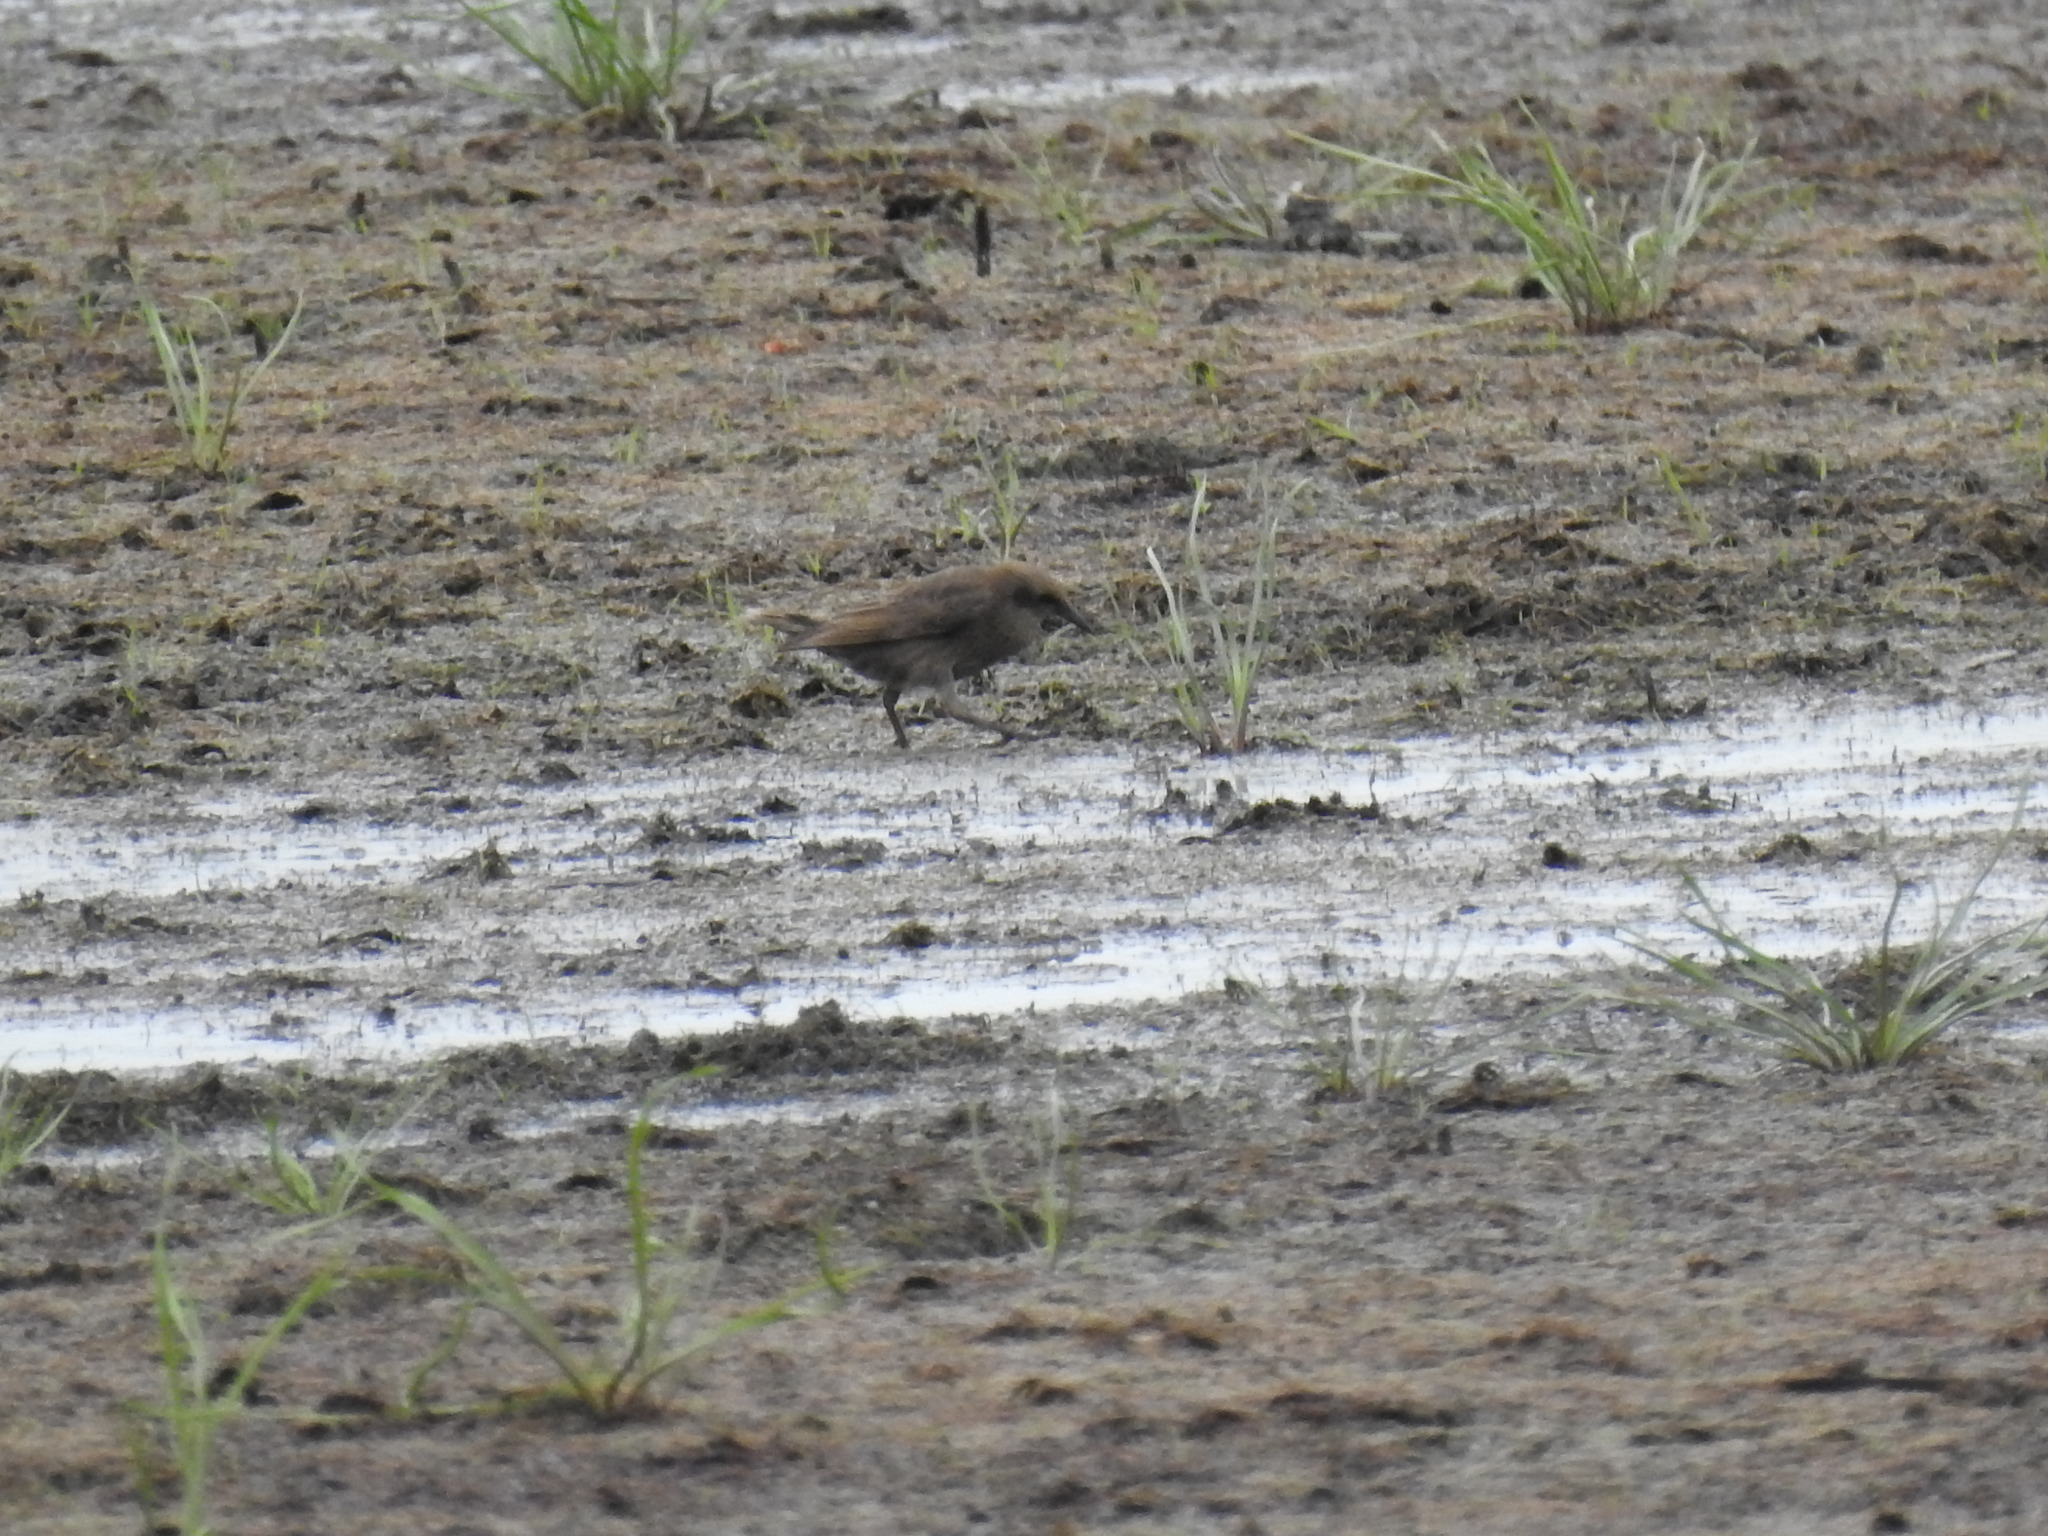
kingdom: Animalia
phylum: Chordata
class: Aves
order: Passeriformes
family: Sturnidae
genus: Sturnus
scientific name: Sturnus vulgaris
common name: Common starling
